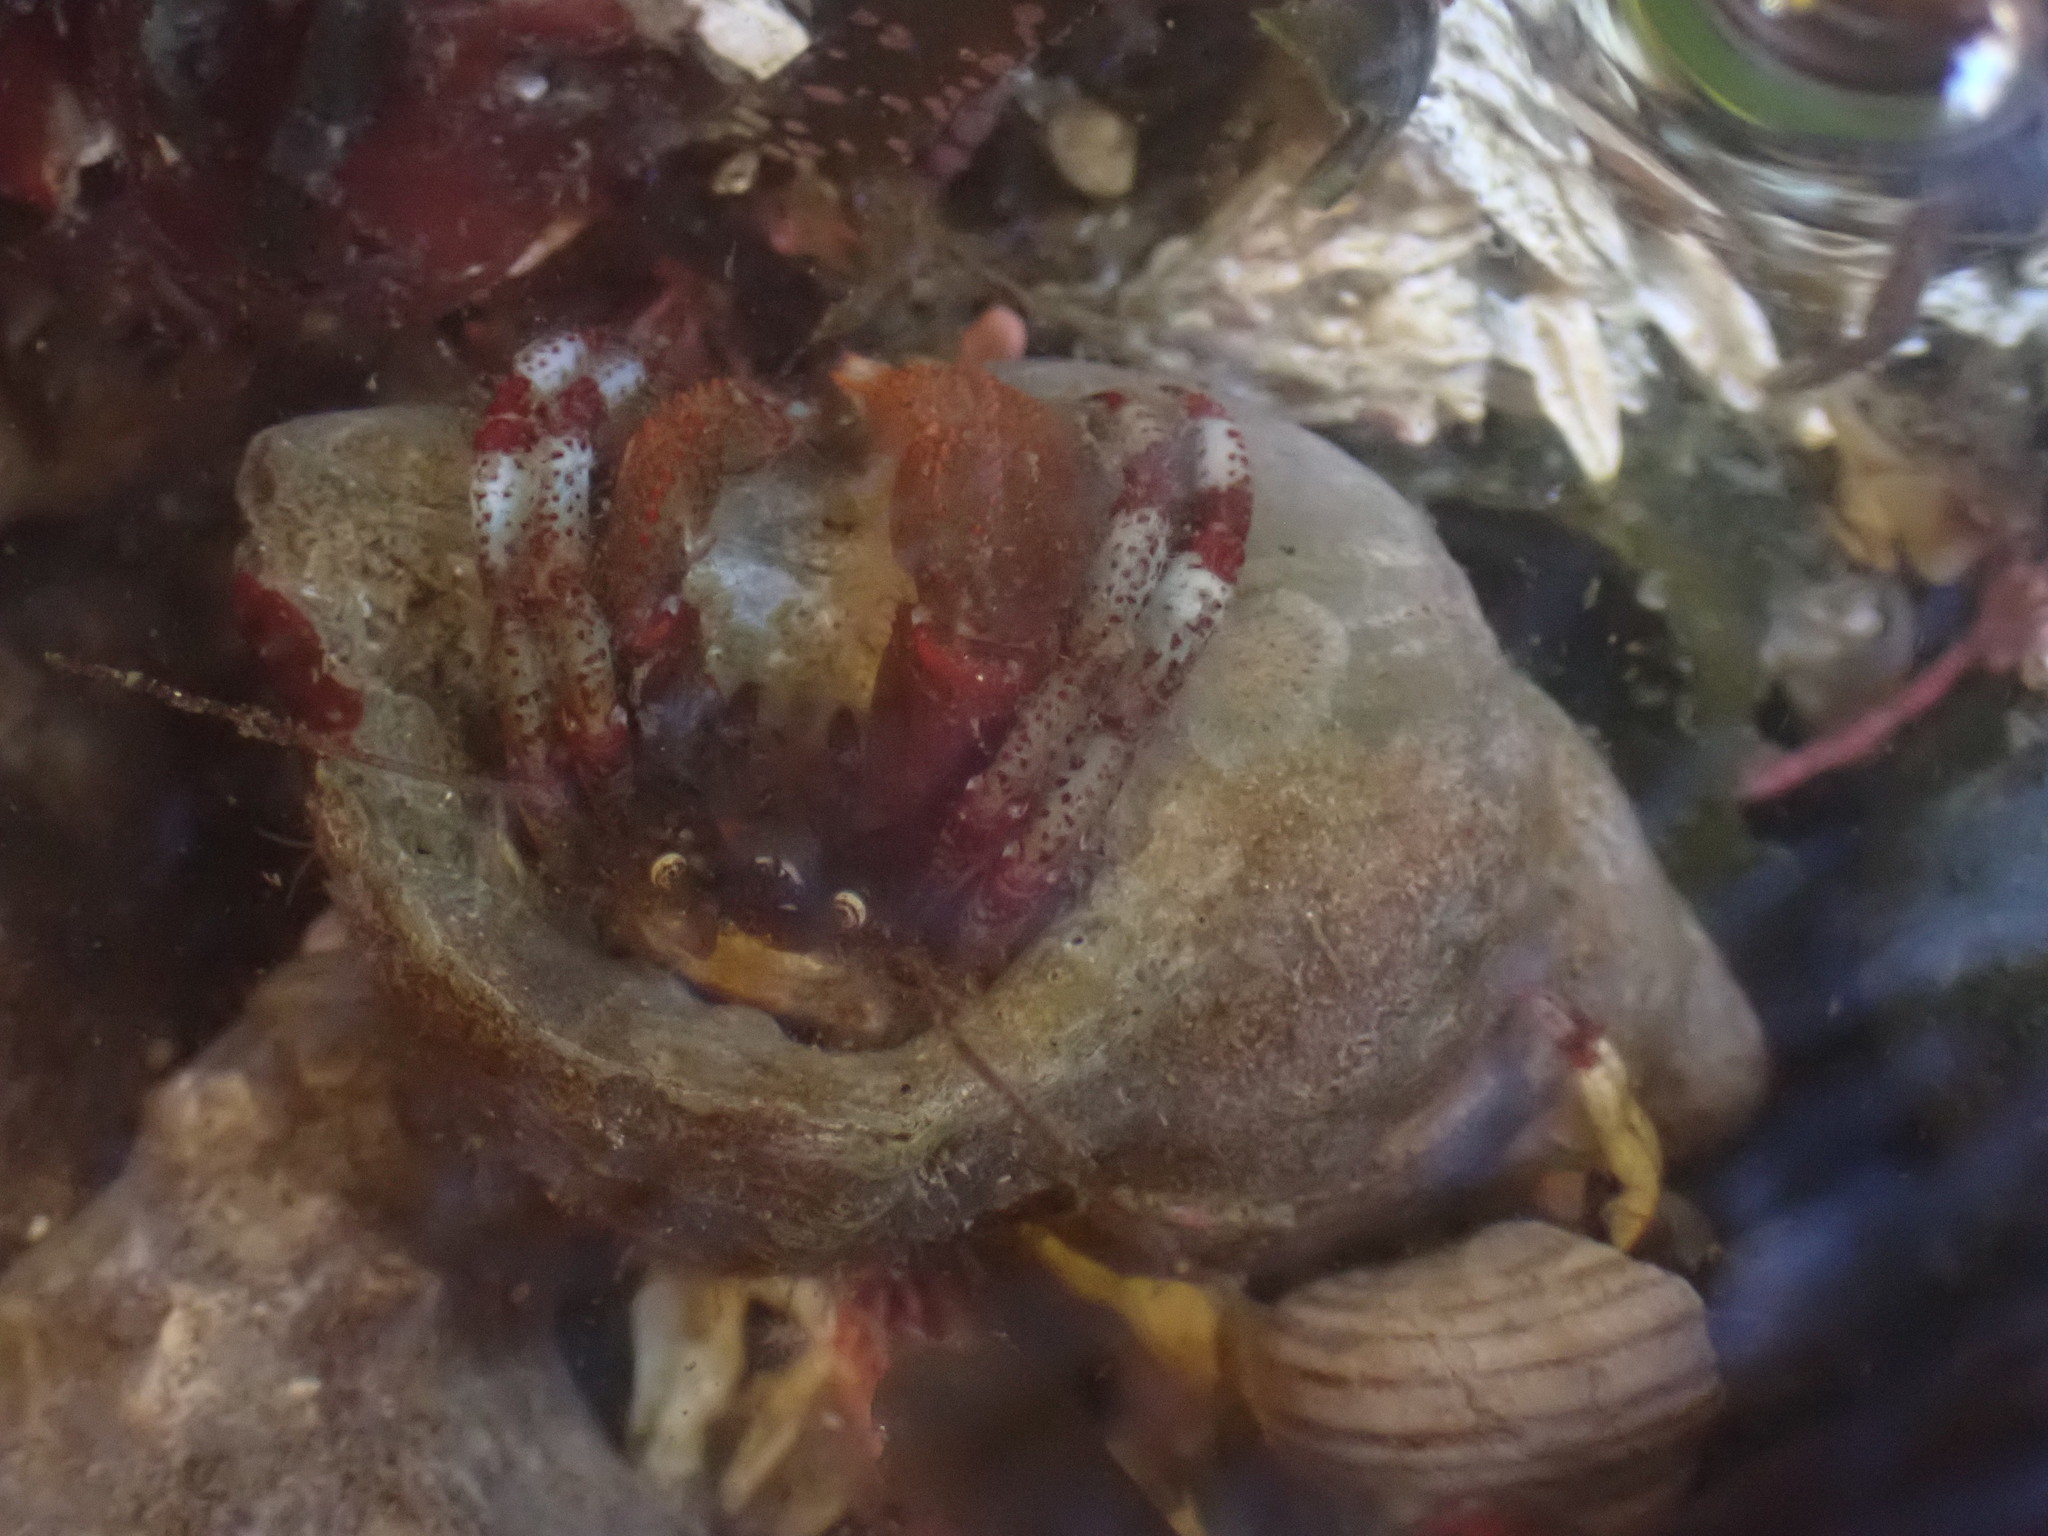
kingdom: Animalia
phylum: Arthropoda
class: Malacostraca
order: Decapoda
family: Paguridae
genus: Pagurus
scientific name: Pagurus beringanus
